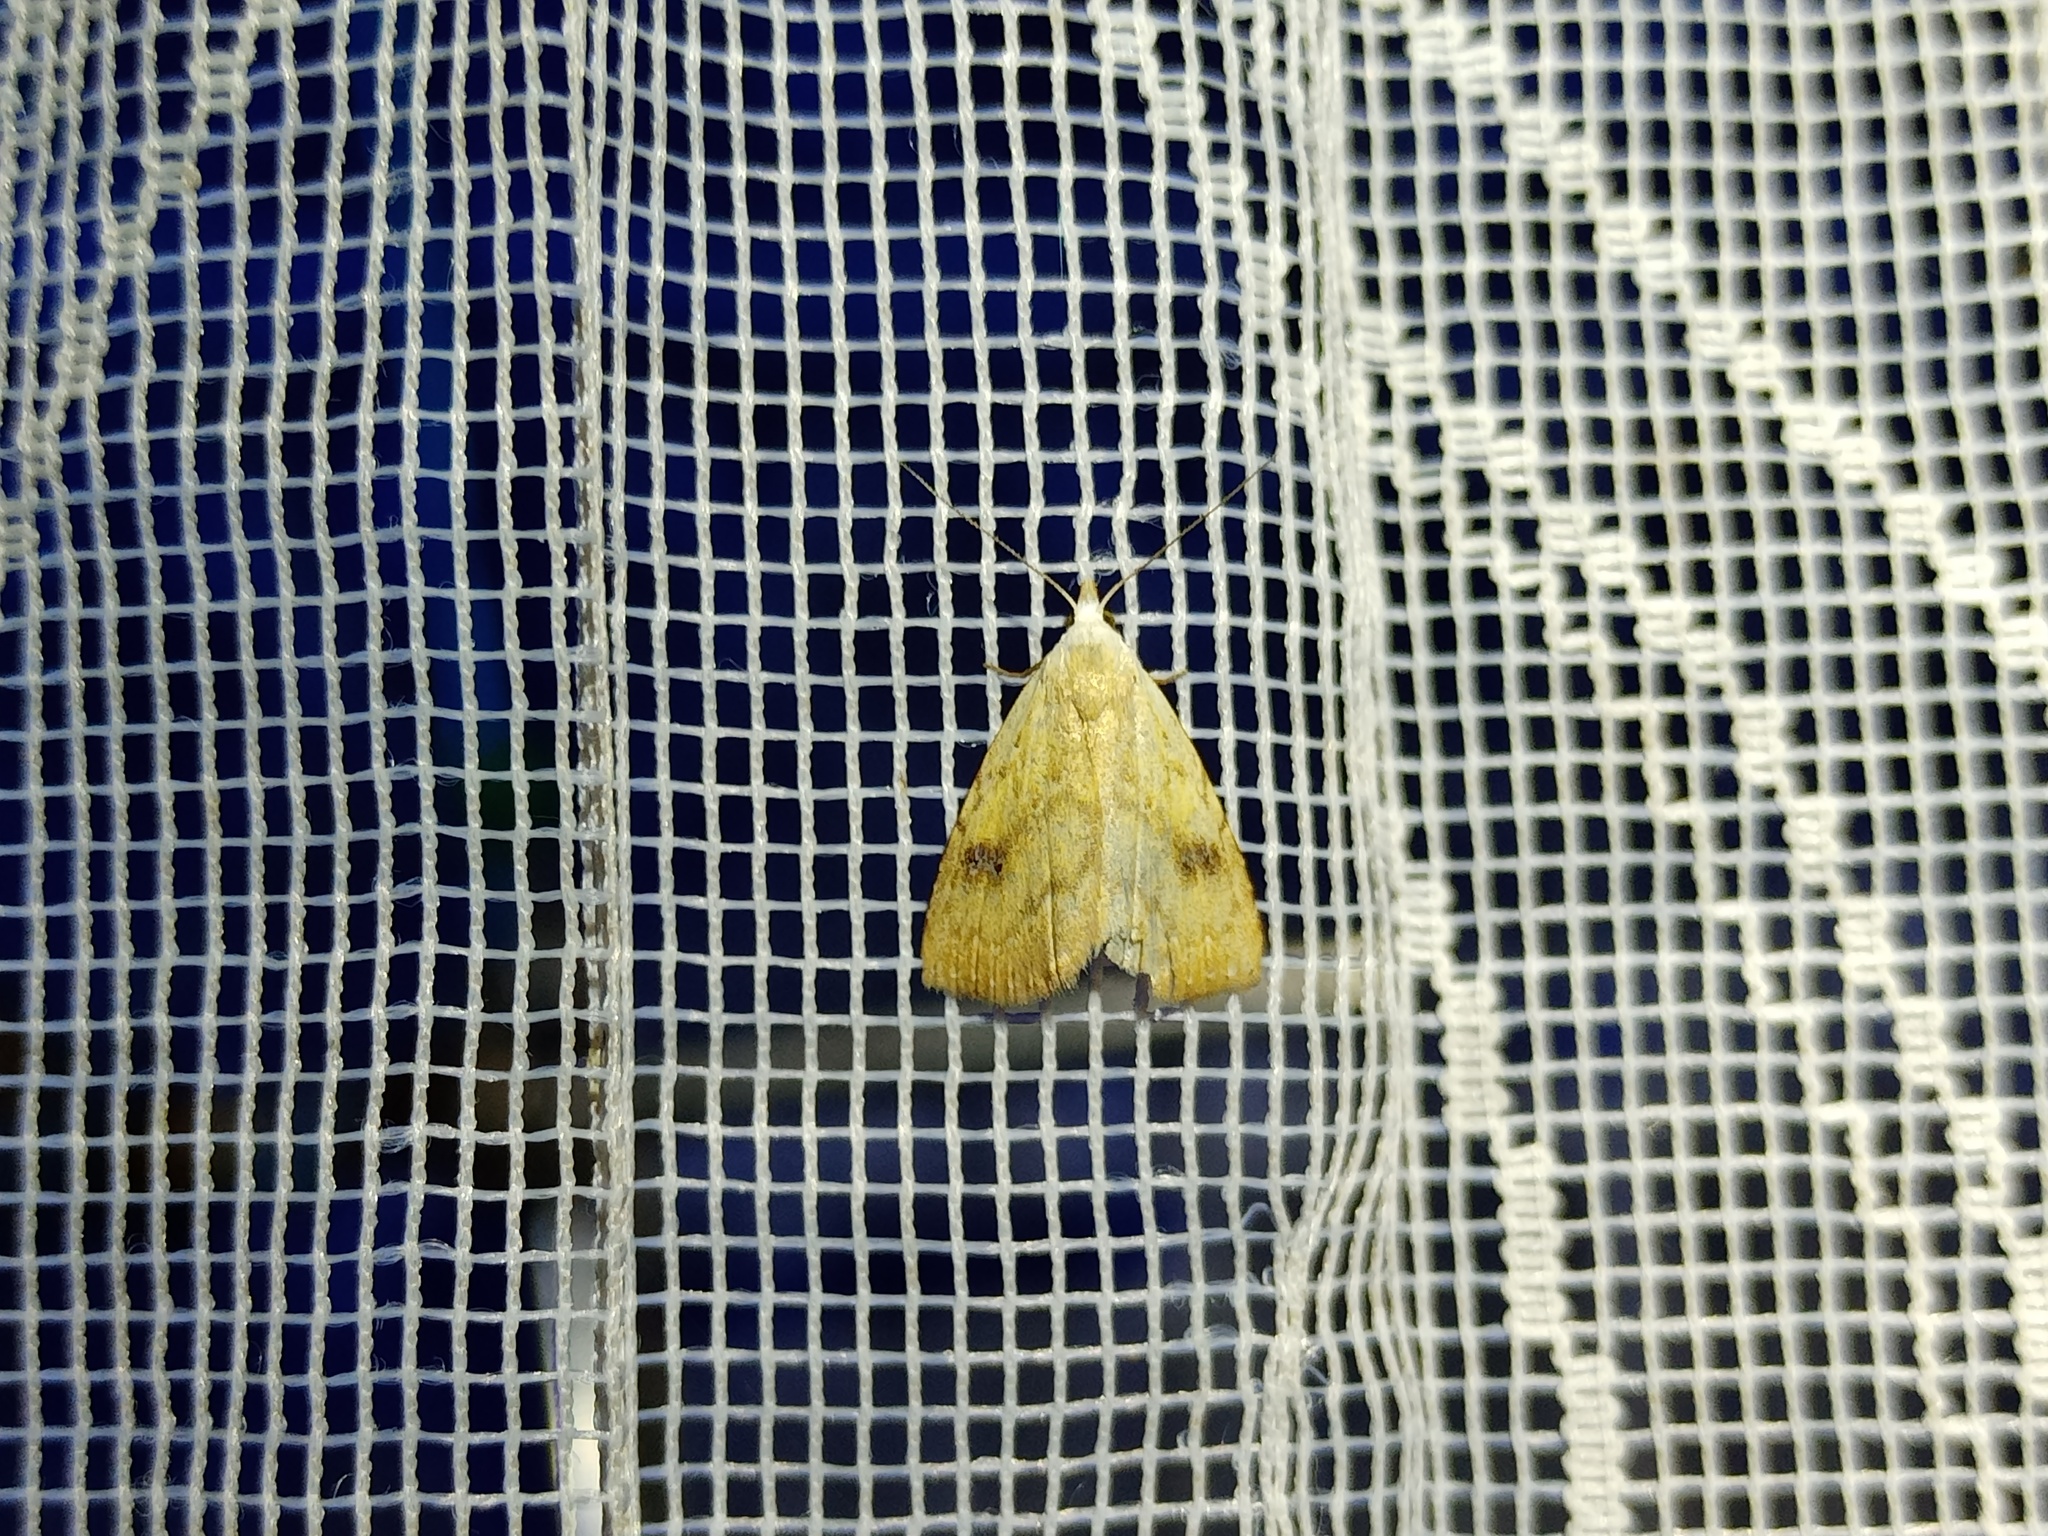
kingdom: Animalia
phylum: Arthropoda
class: Insecta
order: Lepidoptera
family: Erebidae
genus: Rivula
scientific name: Rivula sericealis
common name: Straw dot
